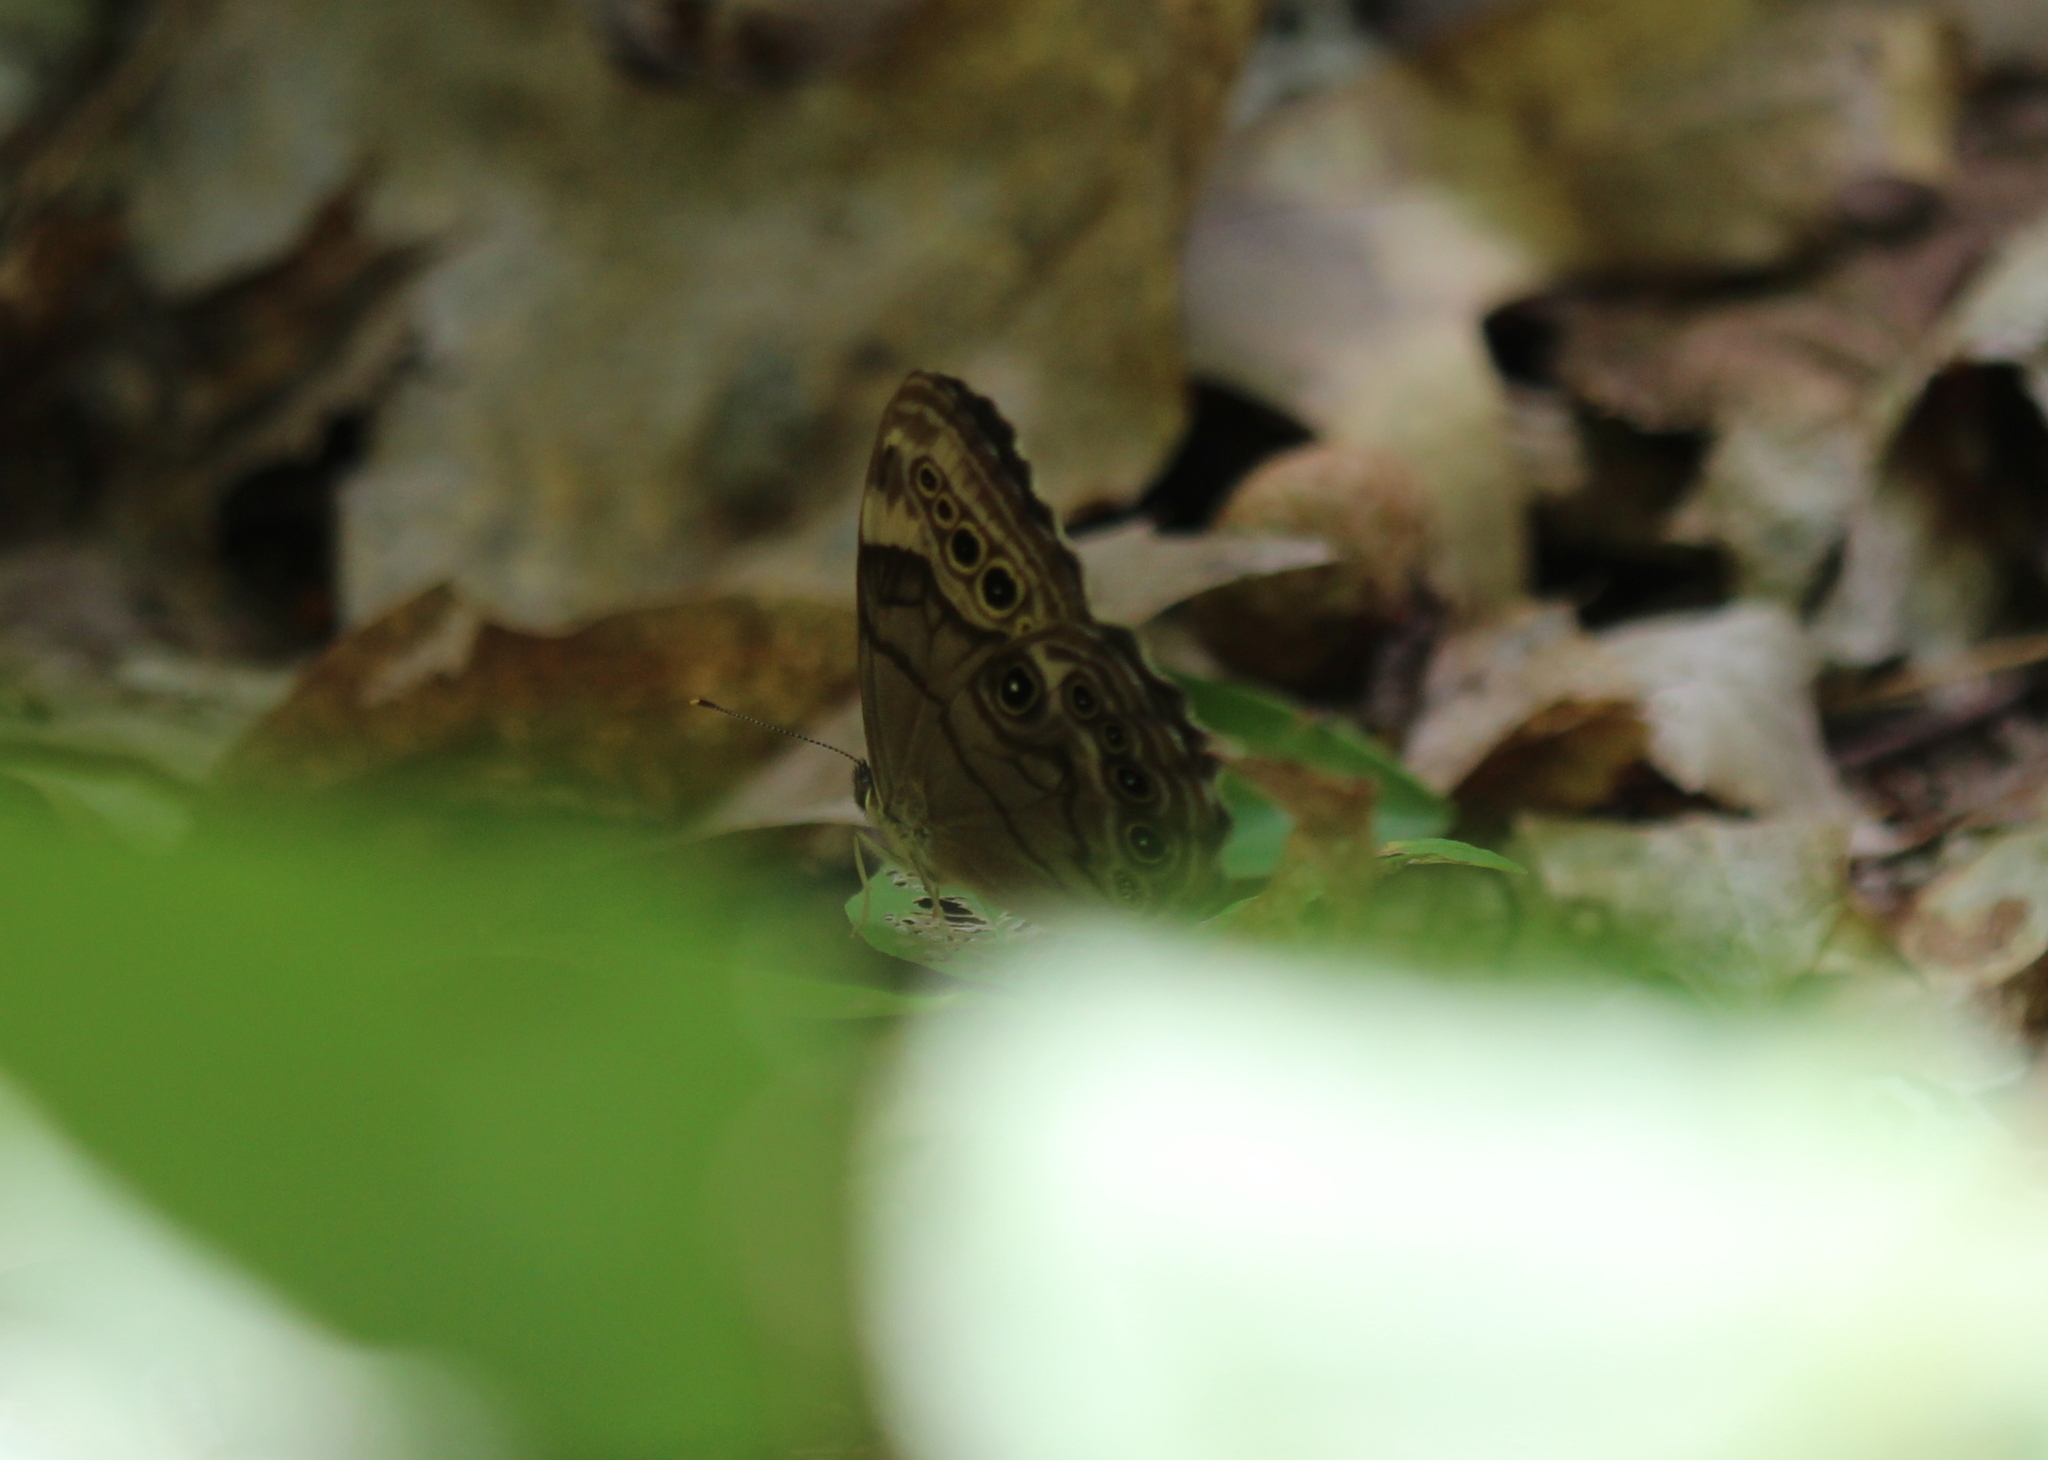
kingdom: Animalia
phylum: Arthropoda
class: Insecta
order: Lepidoptera
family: Nymphalidae
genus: Lethe
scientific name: Lethe anthedon
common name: Northern pearly-eye
